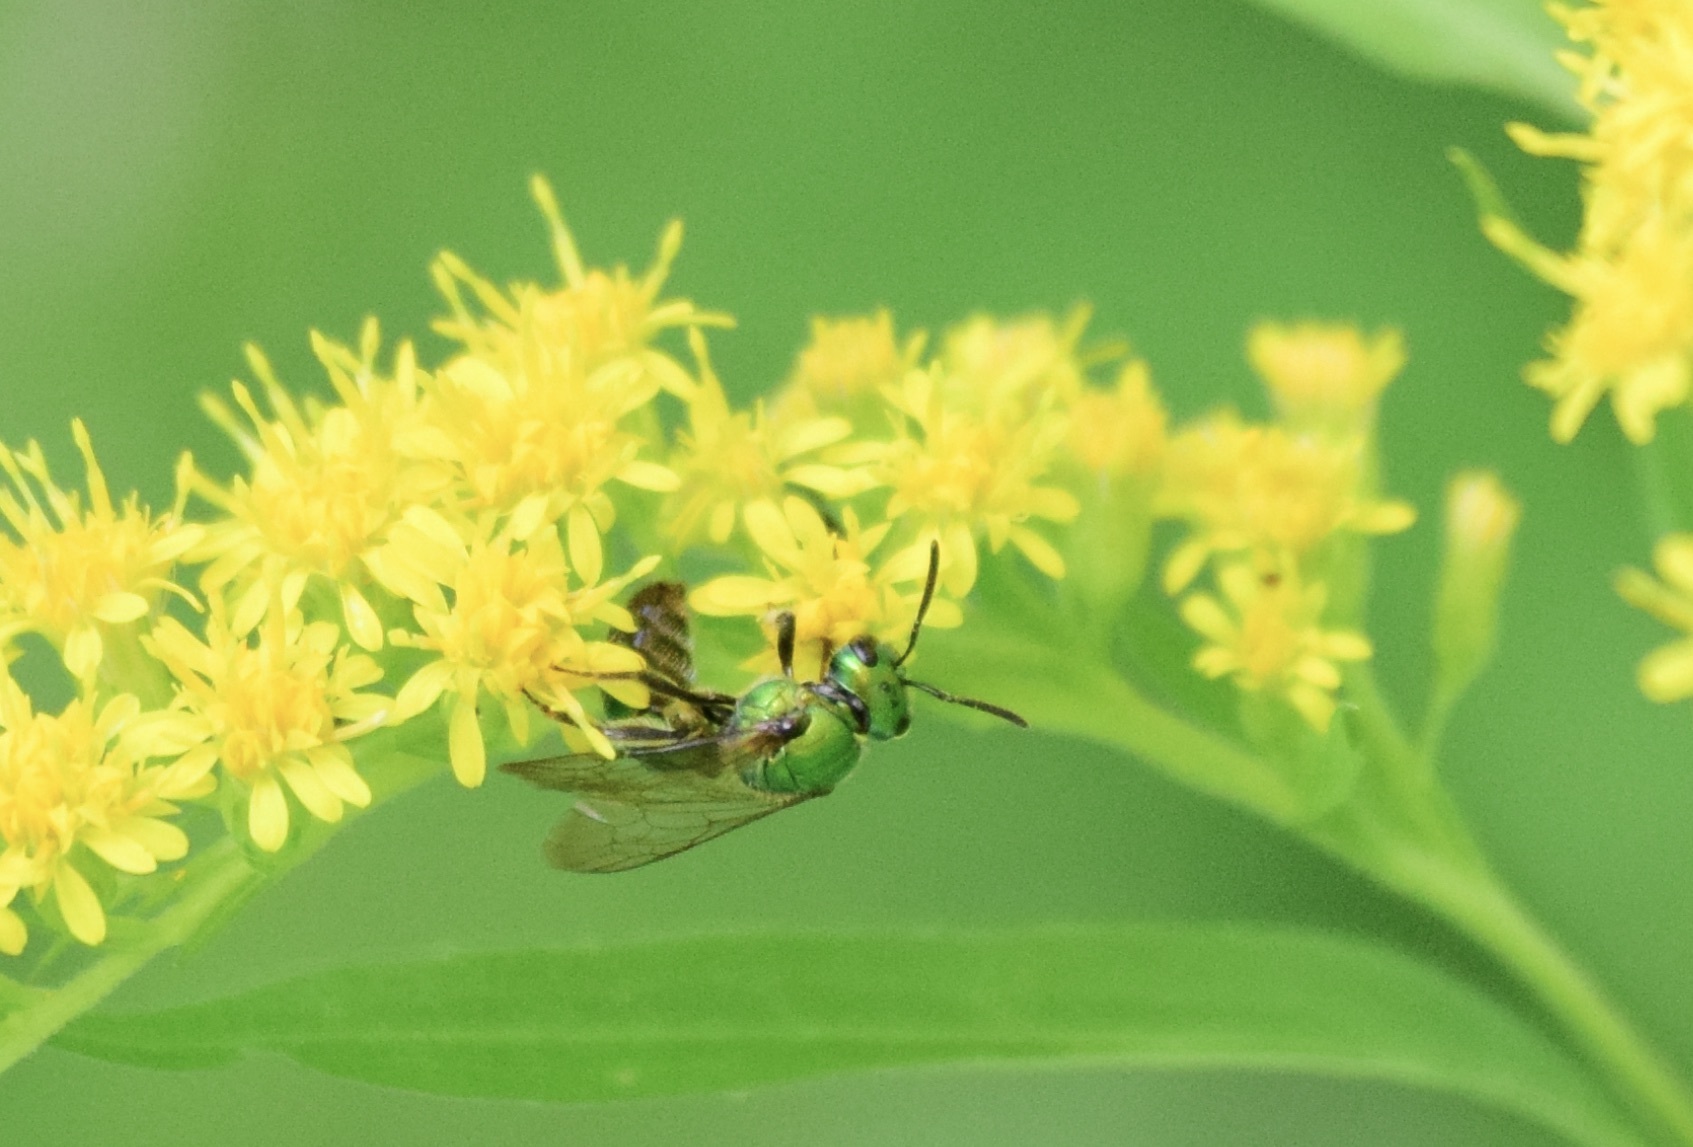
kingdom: Animalia
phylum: Arthropoda
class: Insecta
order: Hymenoptera
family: Halictidae
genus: Augochlora
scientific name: Augochlora pura
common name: Pure green sweat bee
